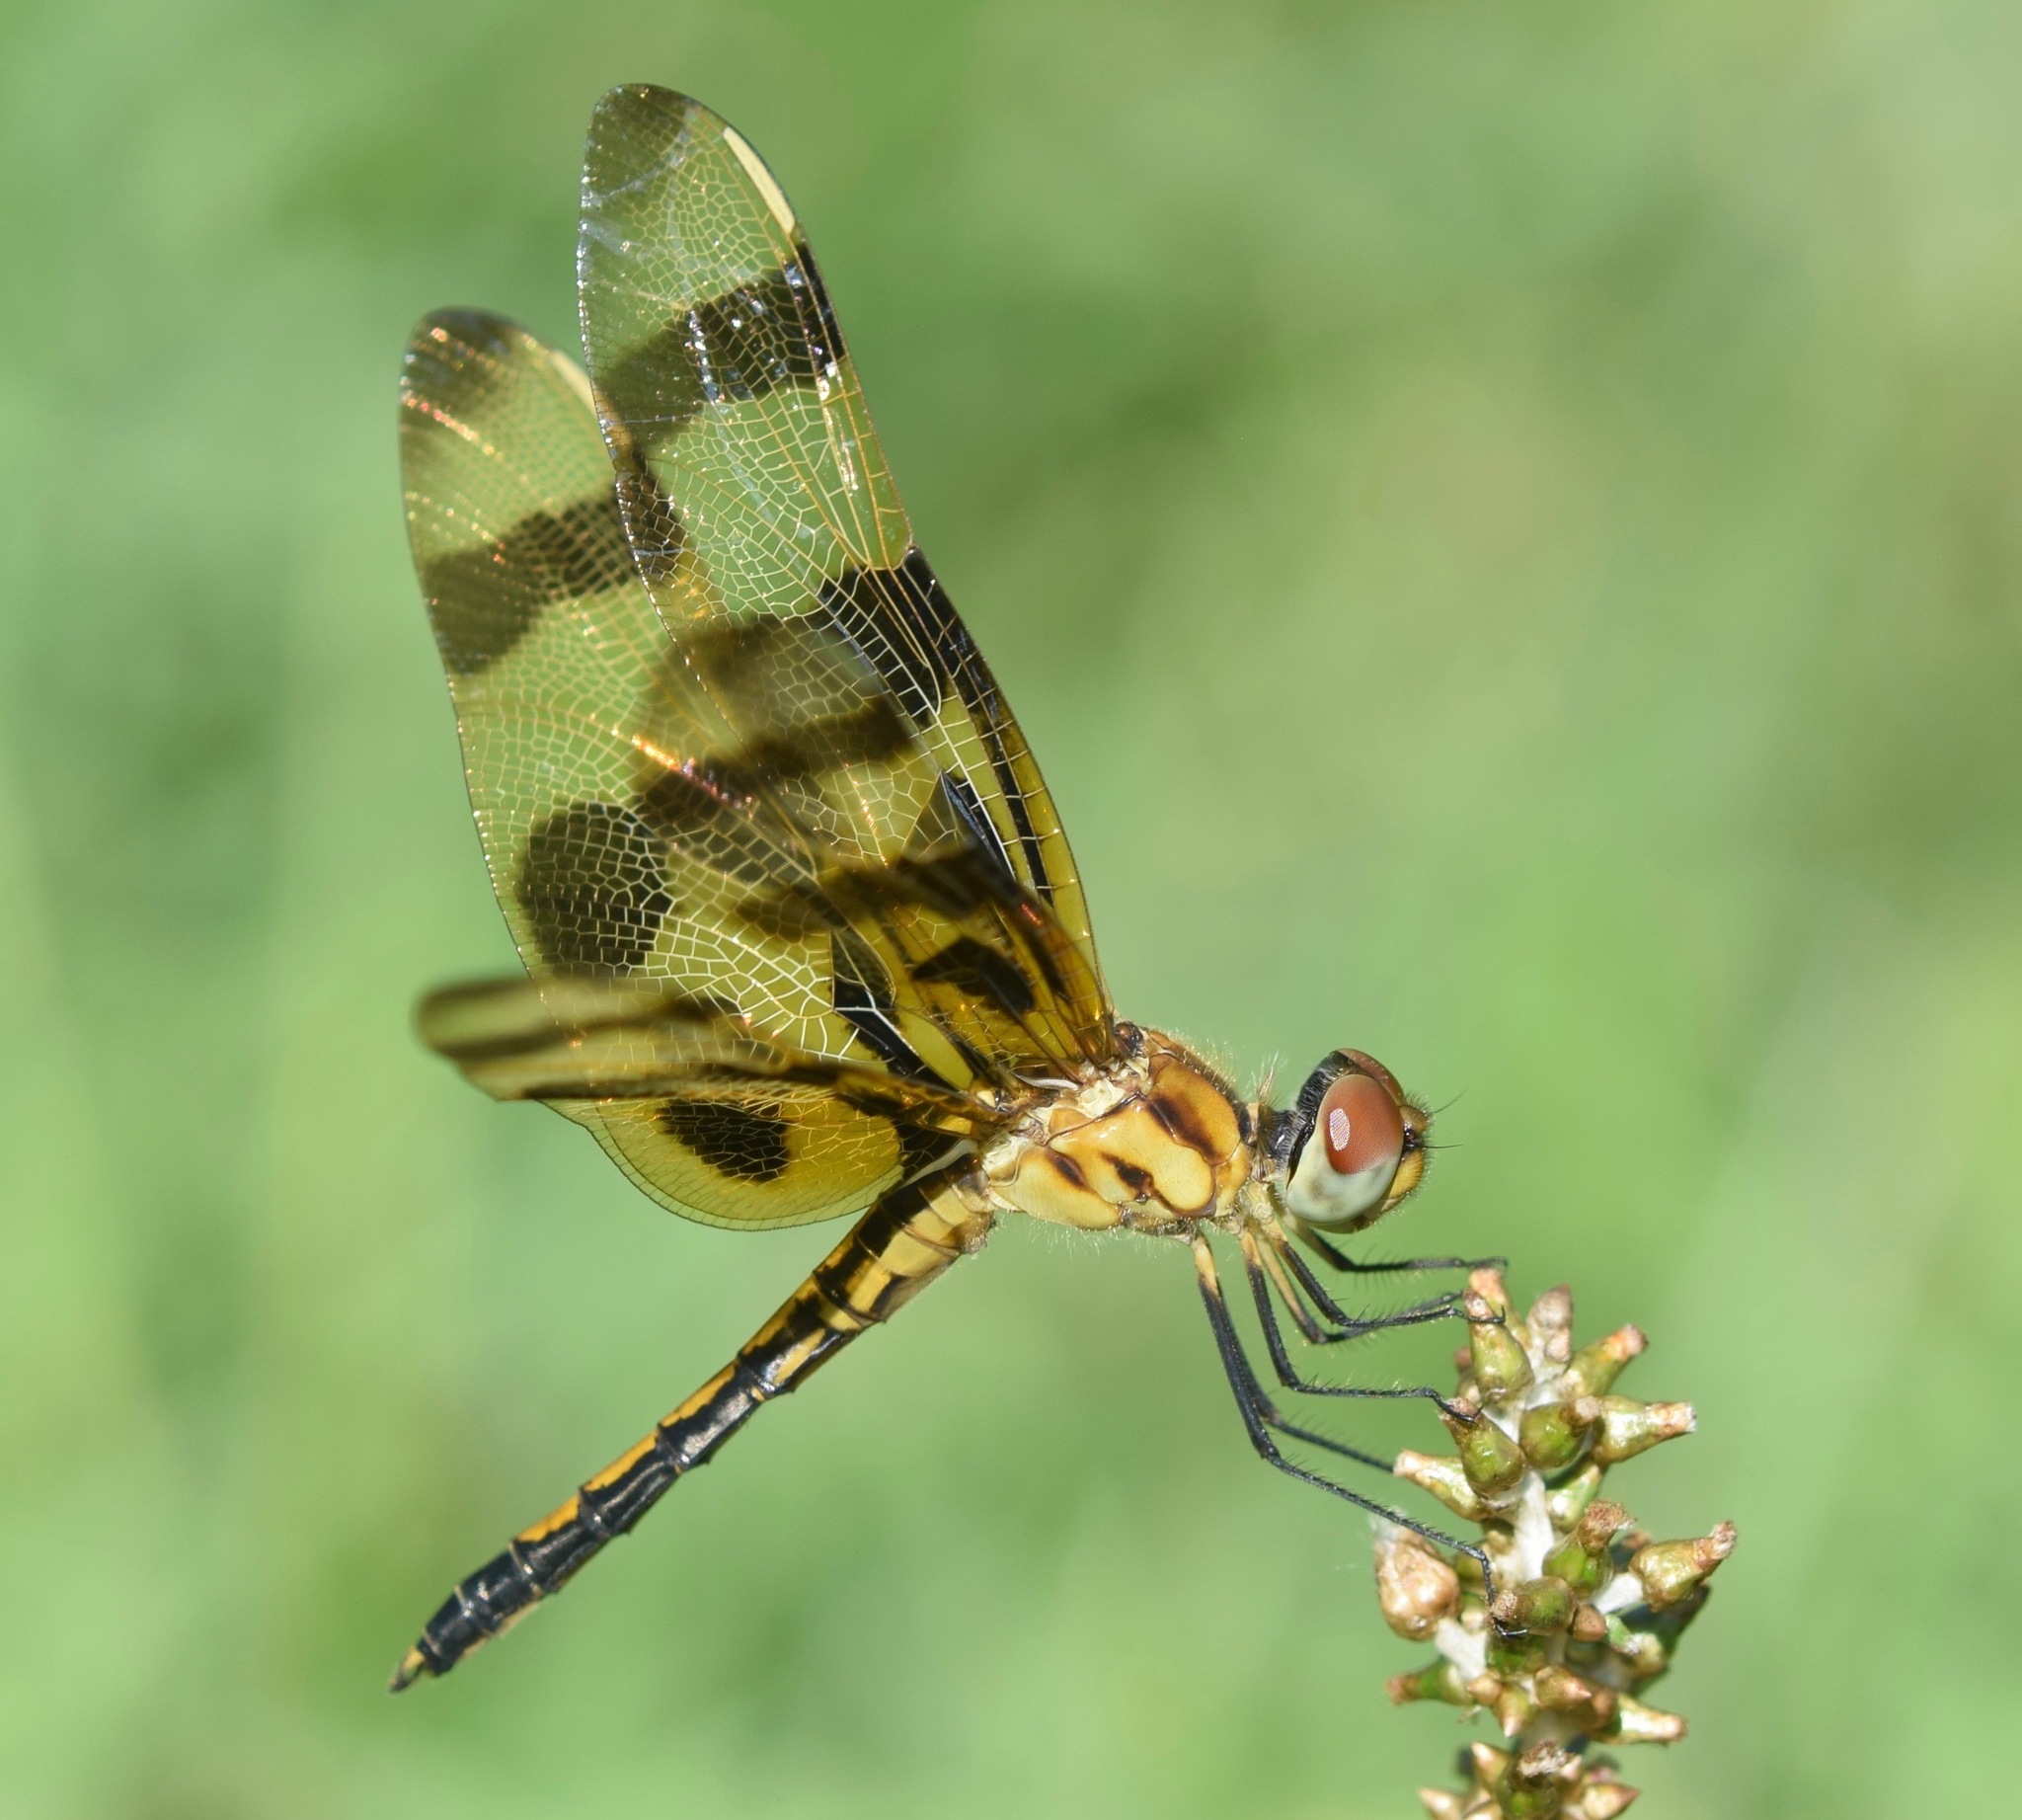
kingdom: Animalia
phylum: Arthropoda
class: Insecta
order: Odonata
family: Libellulidae
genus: Celithemis
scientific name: Celithemis eponina
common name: Halloween pennant
